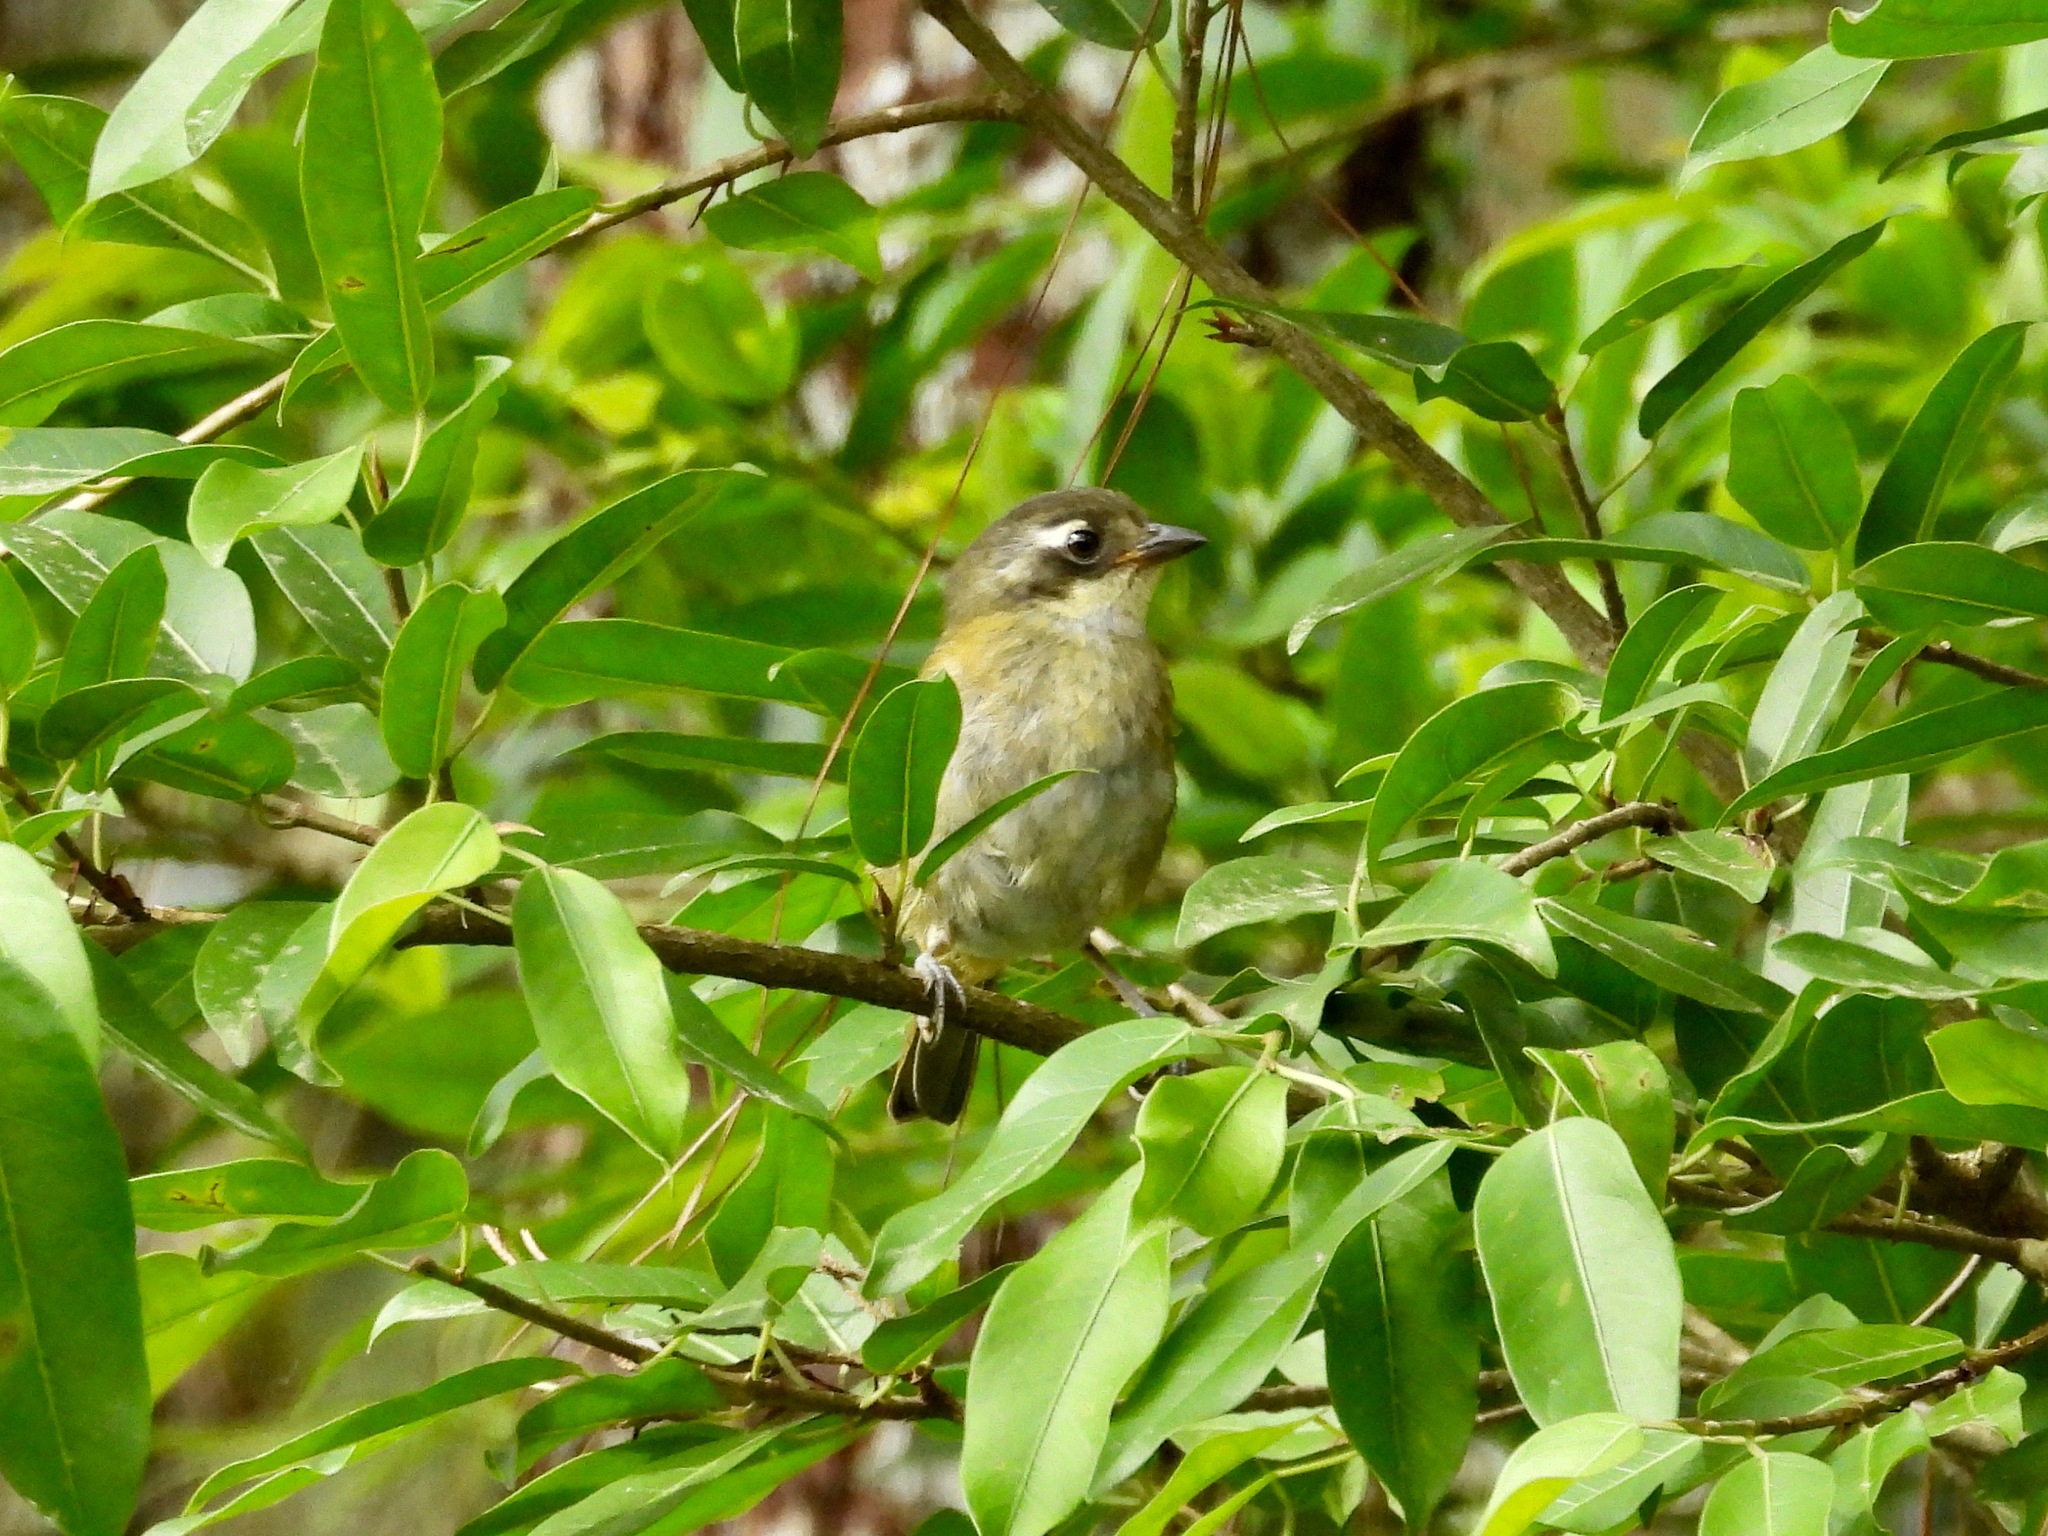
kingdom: Animalia
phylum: Chordata
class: Aves
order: Passeriformes
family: Passerellidae
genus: Chlorospingus
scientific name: Chlorospingus flavopectus
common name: Common chlorospingus
